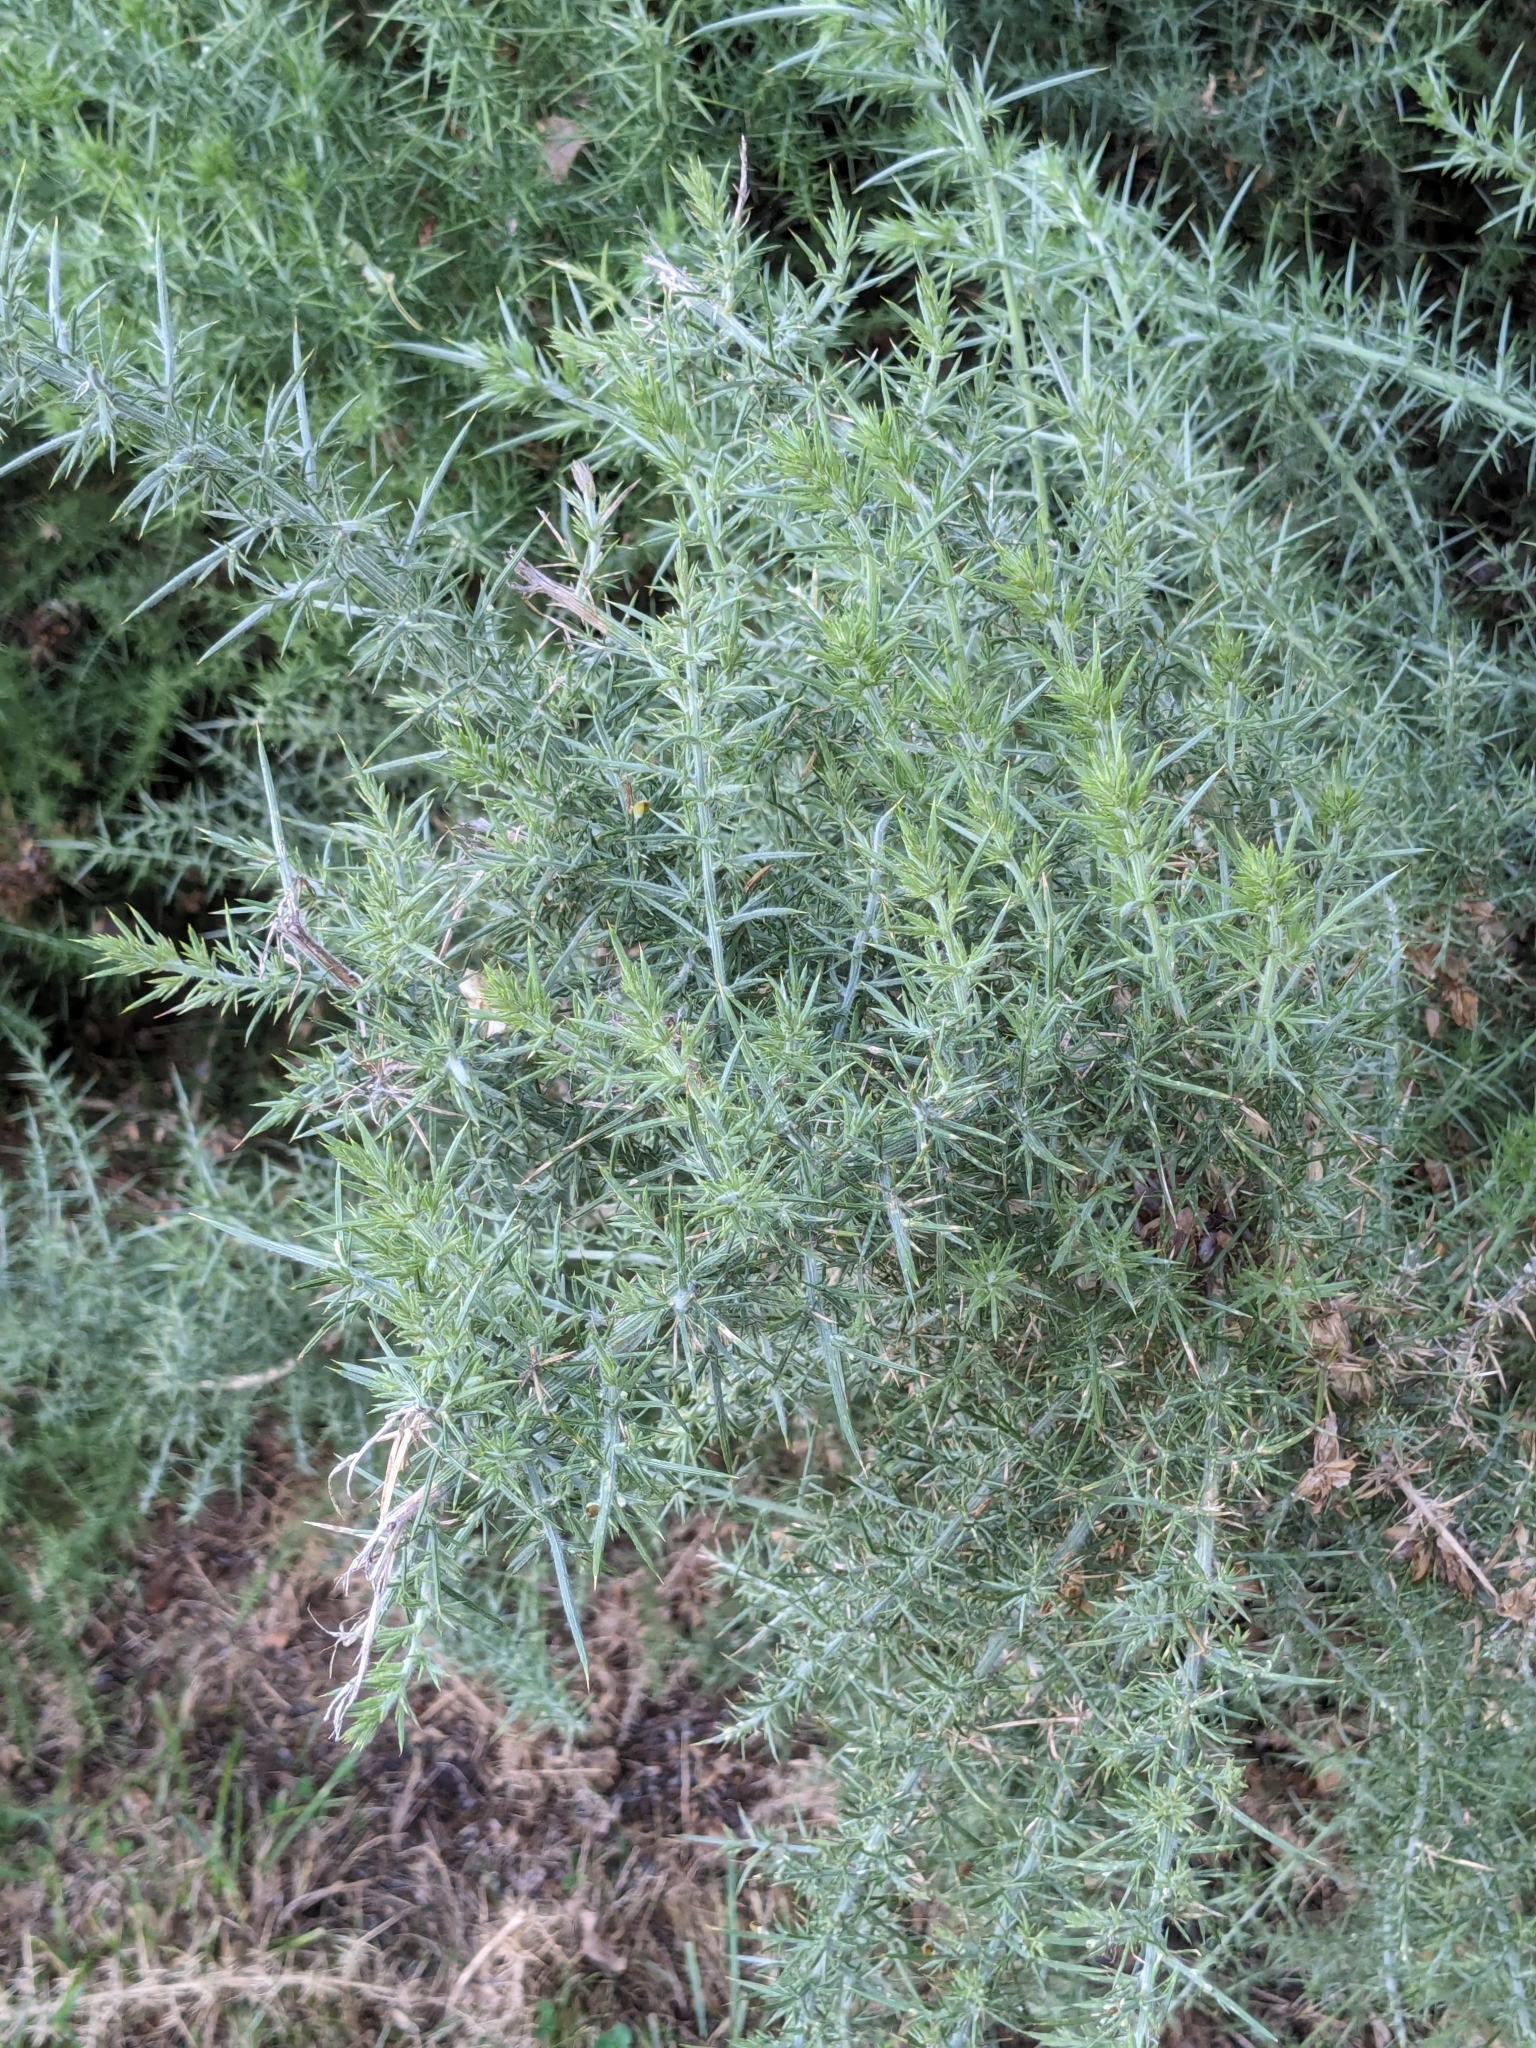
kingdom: Plantae
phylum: Tracheophyta
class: Magnoliopsida
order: Fabales
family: Fabaceae
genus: Ulex
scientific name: Ulex europaeus
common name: Common gorse
